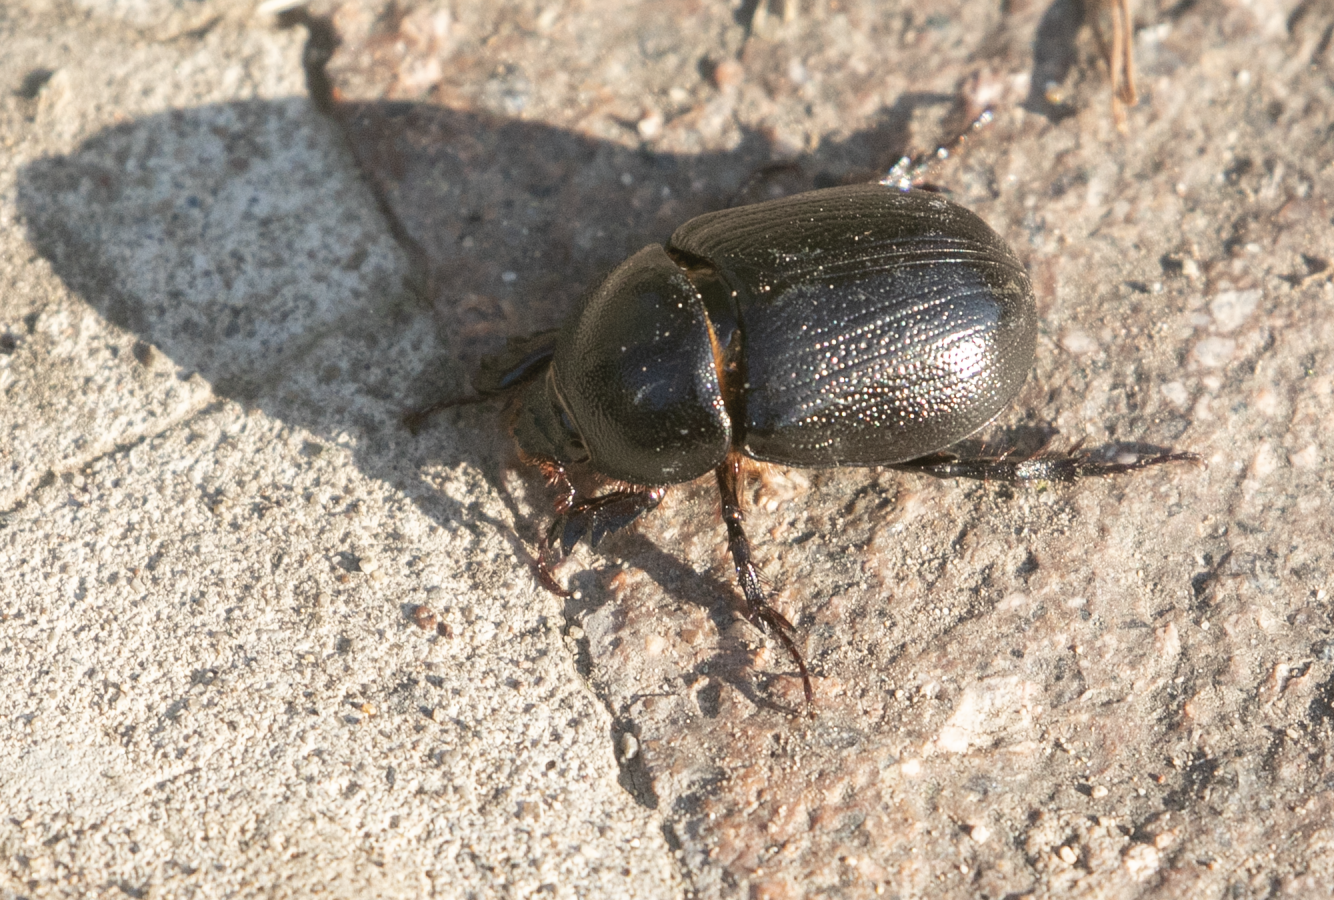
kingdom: Animalia
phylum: Arthropoda
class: Insecta
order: Coleoptera
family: Scarabaeidae
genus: Pentodon
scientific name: Pentodon bidens
